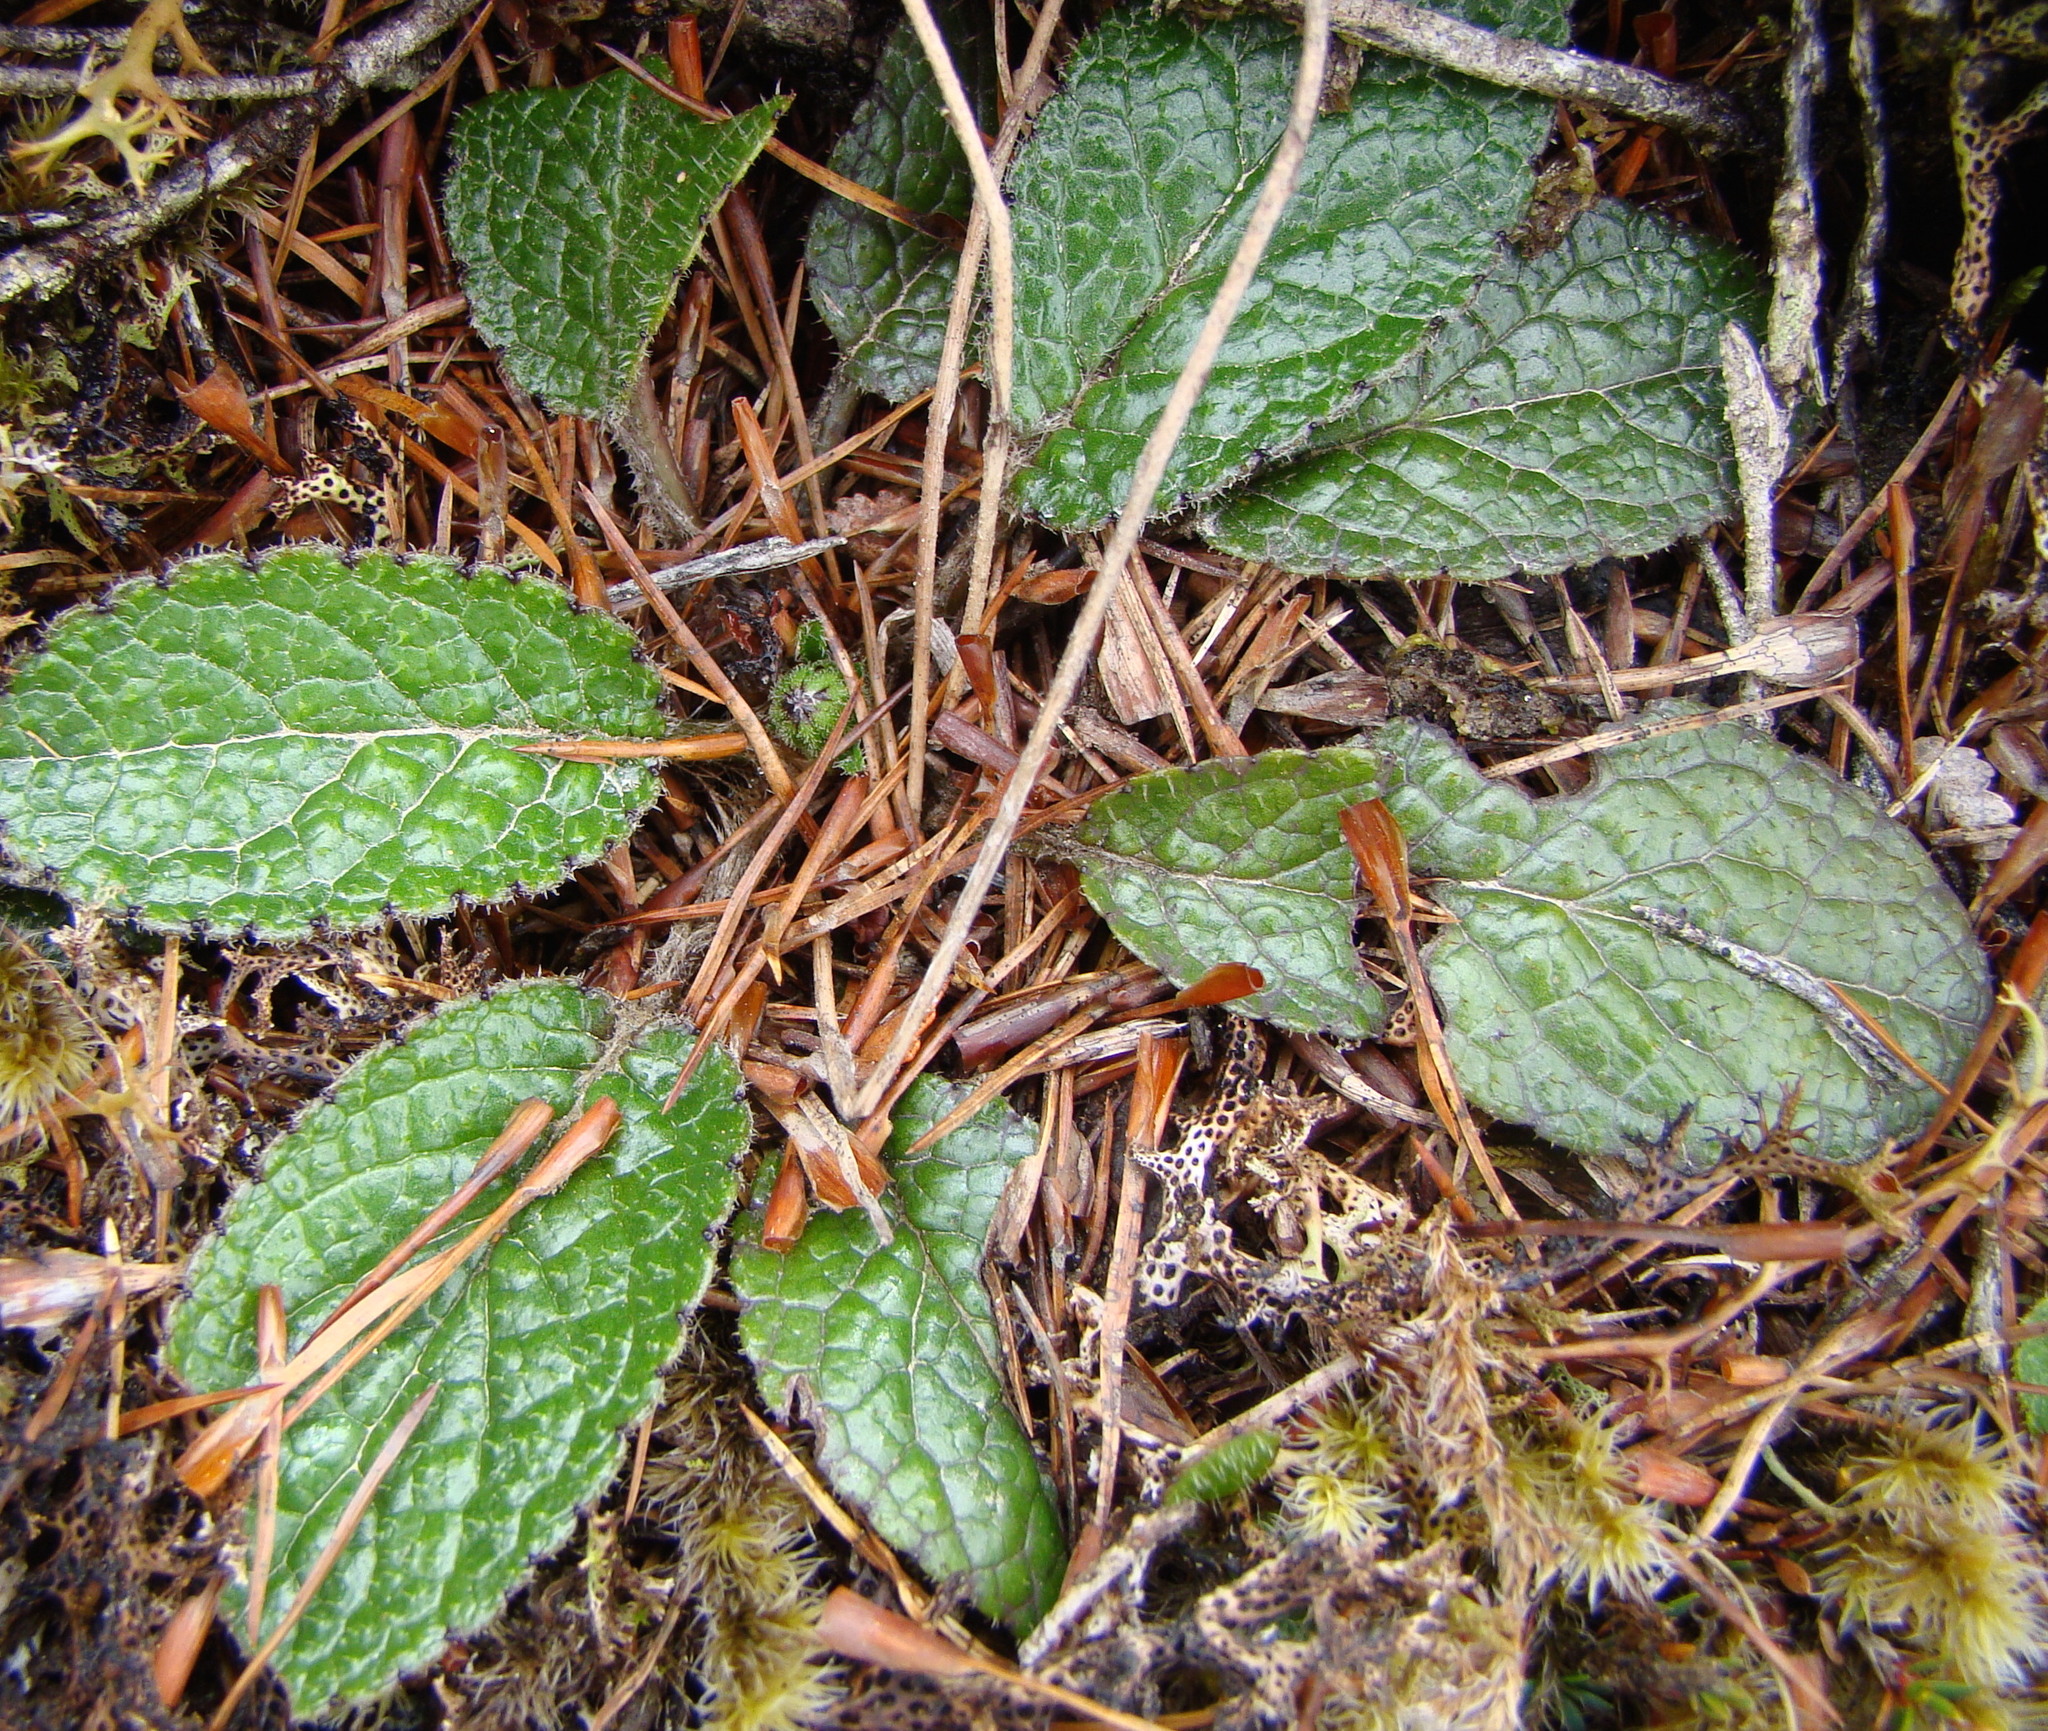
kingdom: Plantae
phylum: Tracheophyta
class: Magnoliopsida
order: Asterales
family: Asteraceae
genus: Brachyglottis
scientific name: Brachyglottis bellidioides
